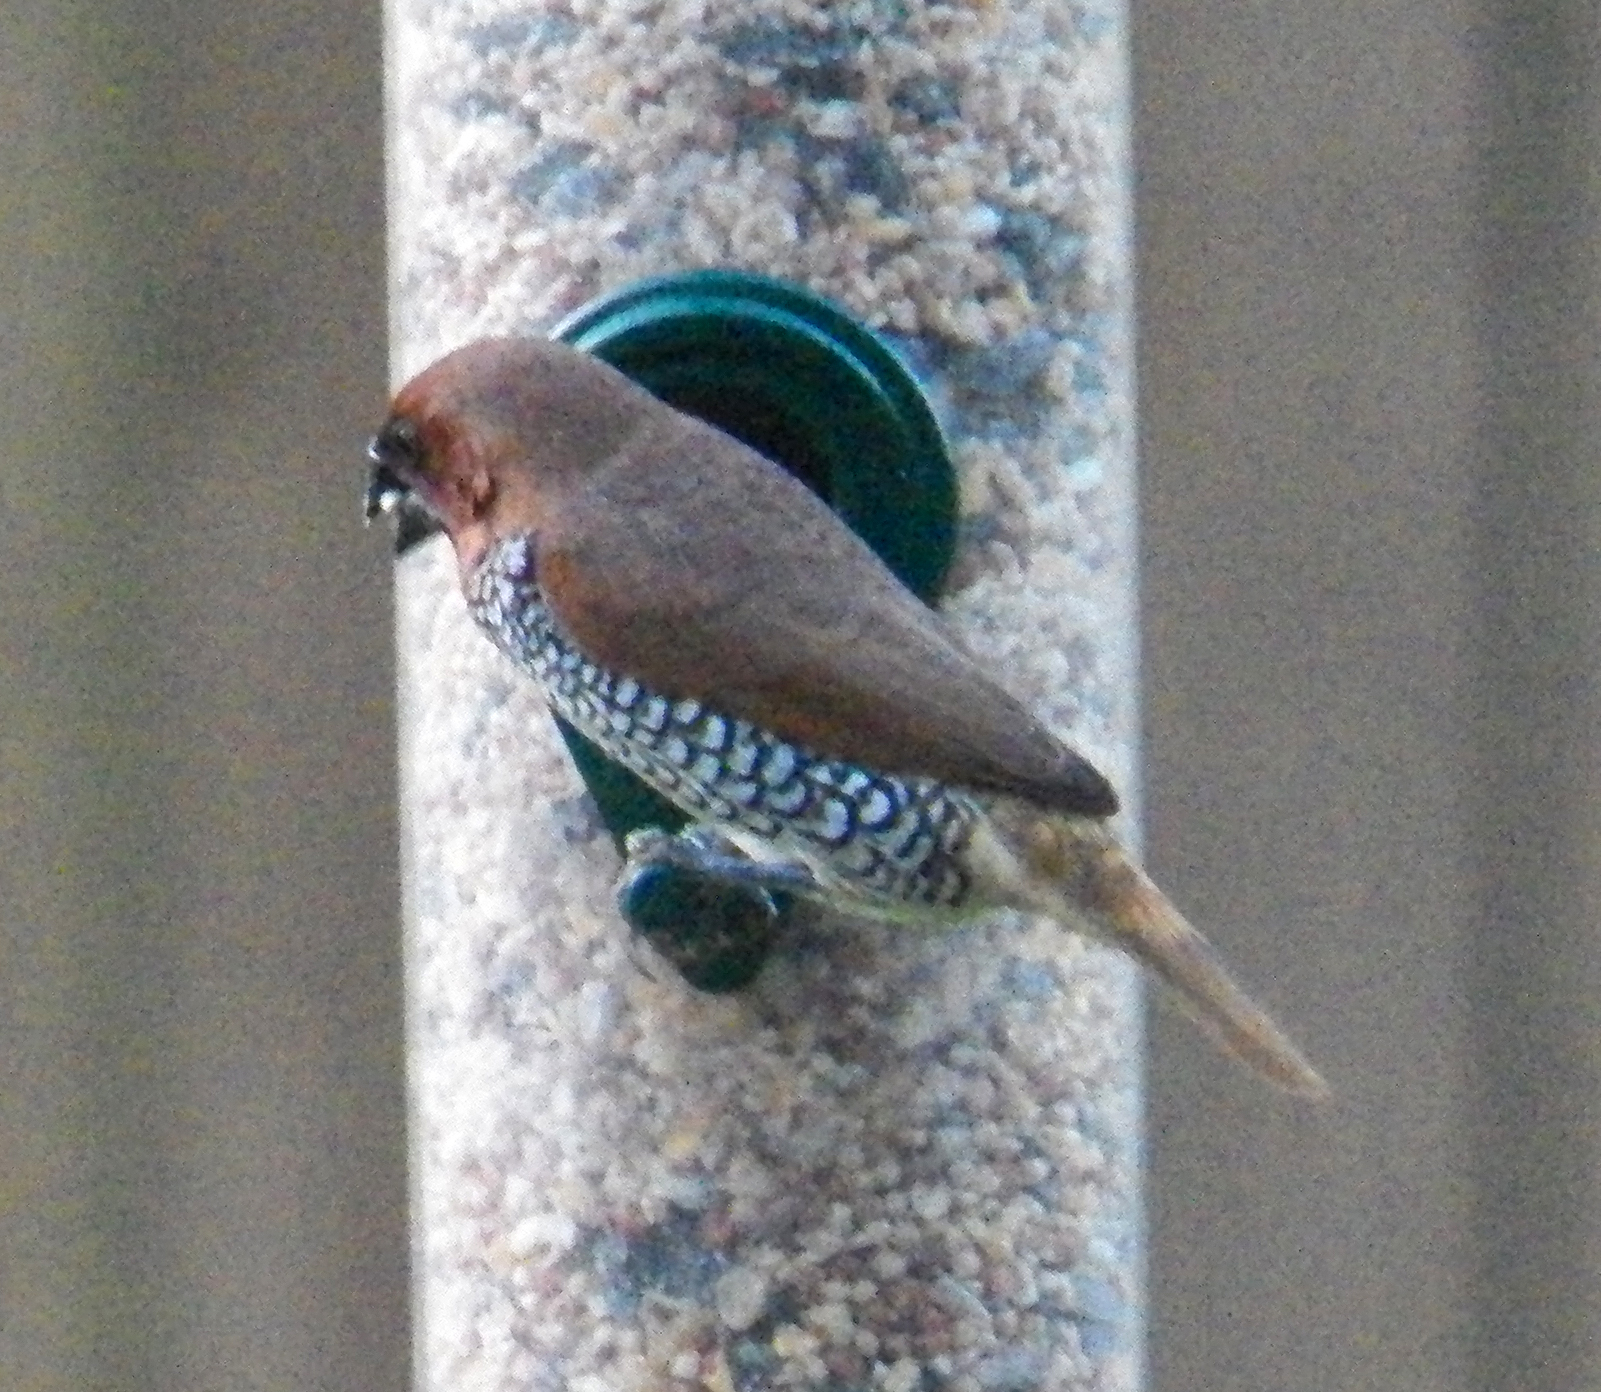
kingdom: Animalia
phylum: Chordata
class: Aves
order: Passeriformes
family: Estrildidae
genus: Lonchura
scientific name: Lonchura punctulata
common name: Scaly-breasted munia
